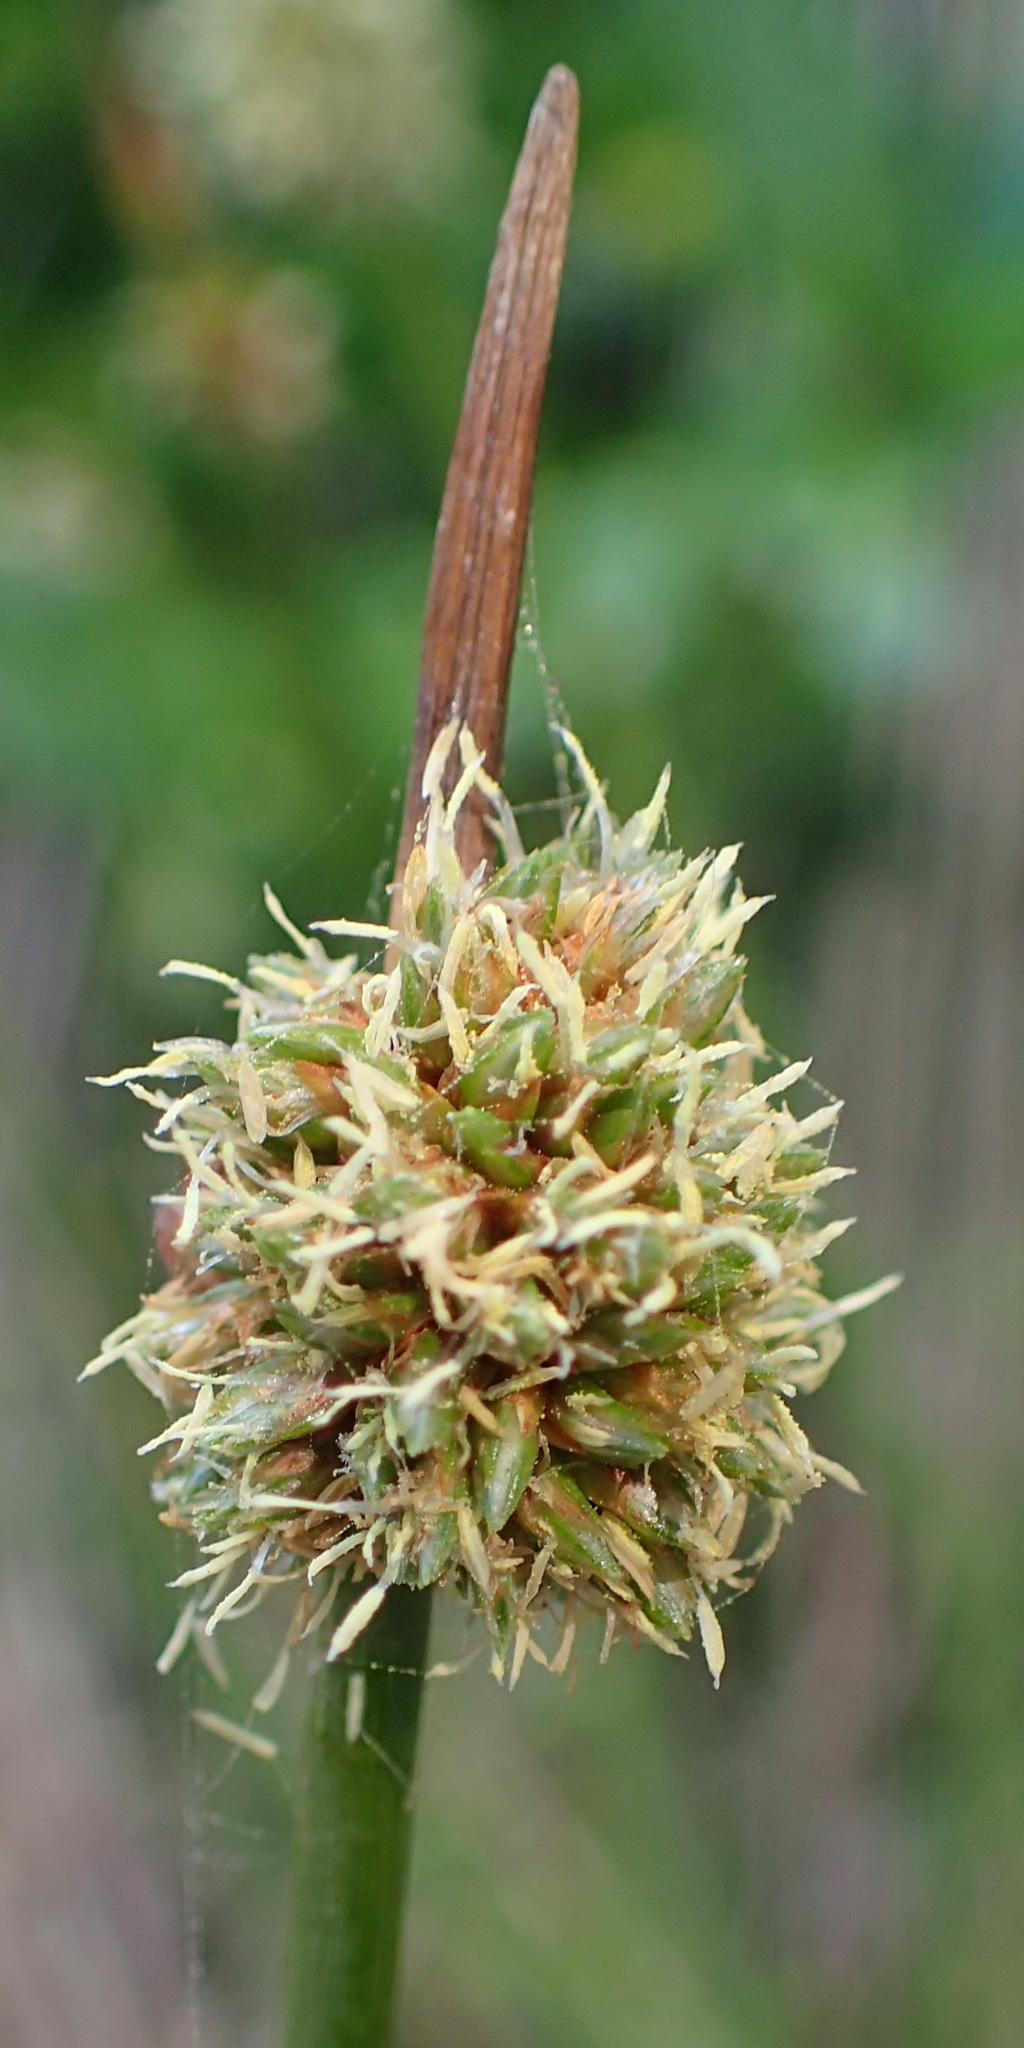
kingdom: Plantae
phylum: Tracheophyta
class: Liliopsida
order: Poales
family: Cyperaceae
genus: Ficinia
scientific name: Ficinia nodosa
